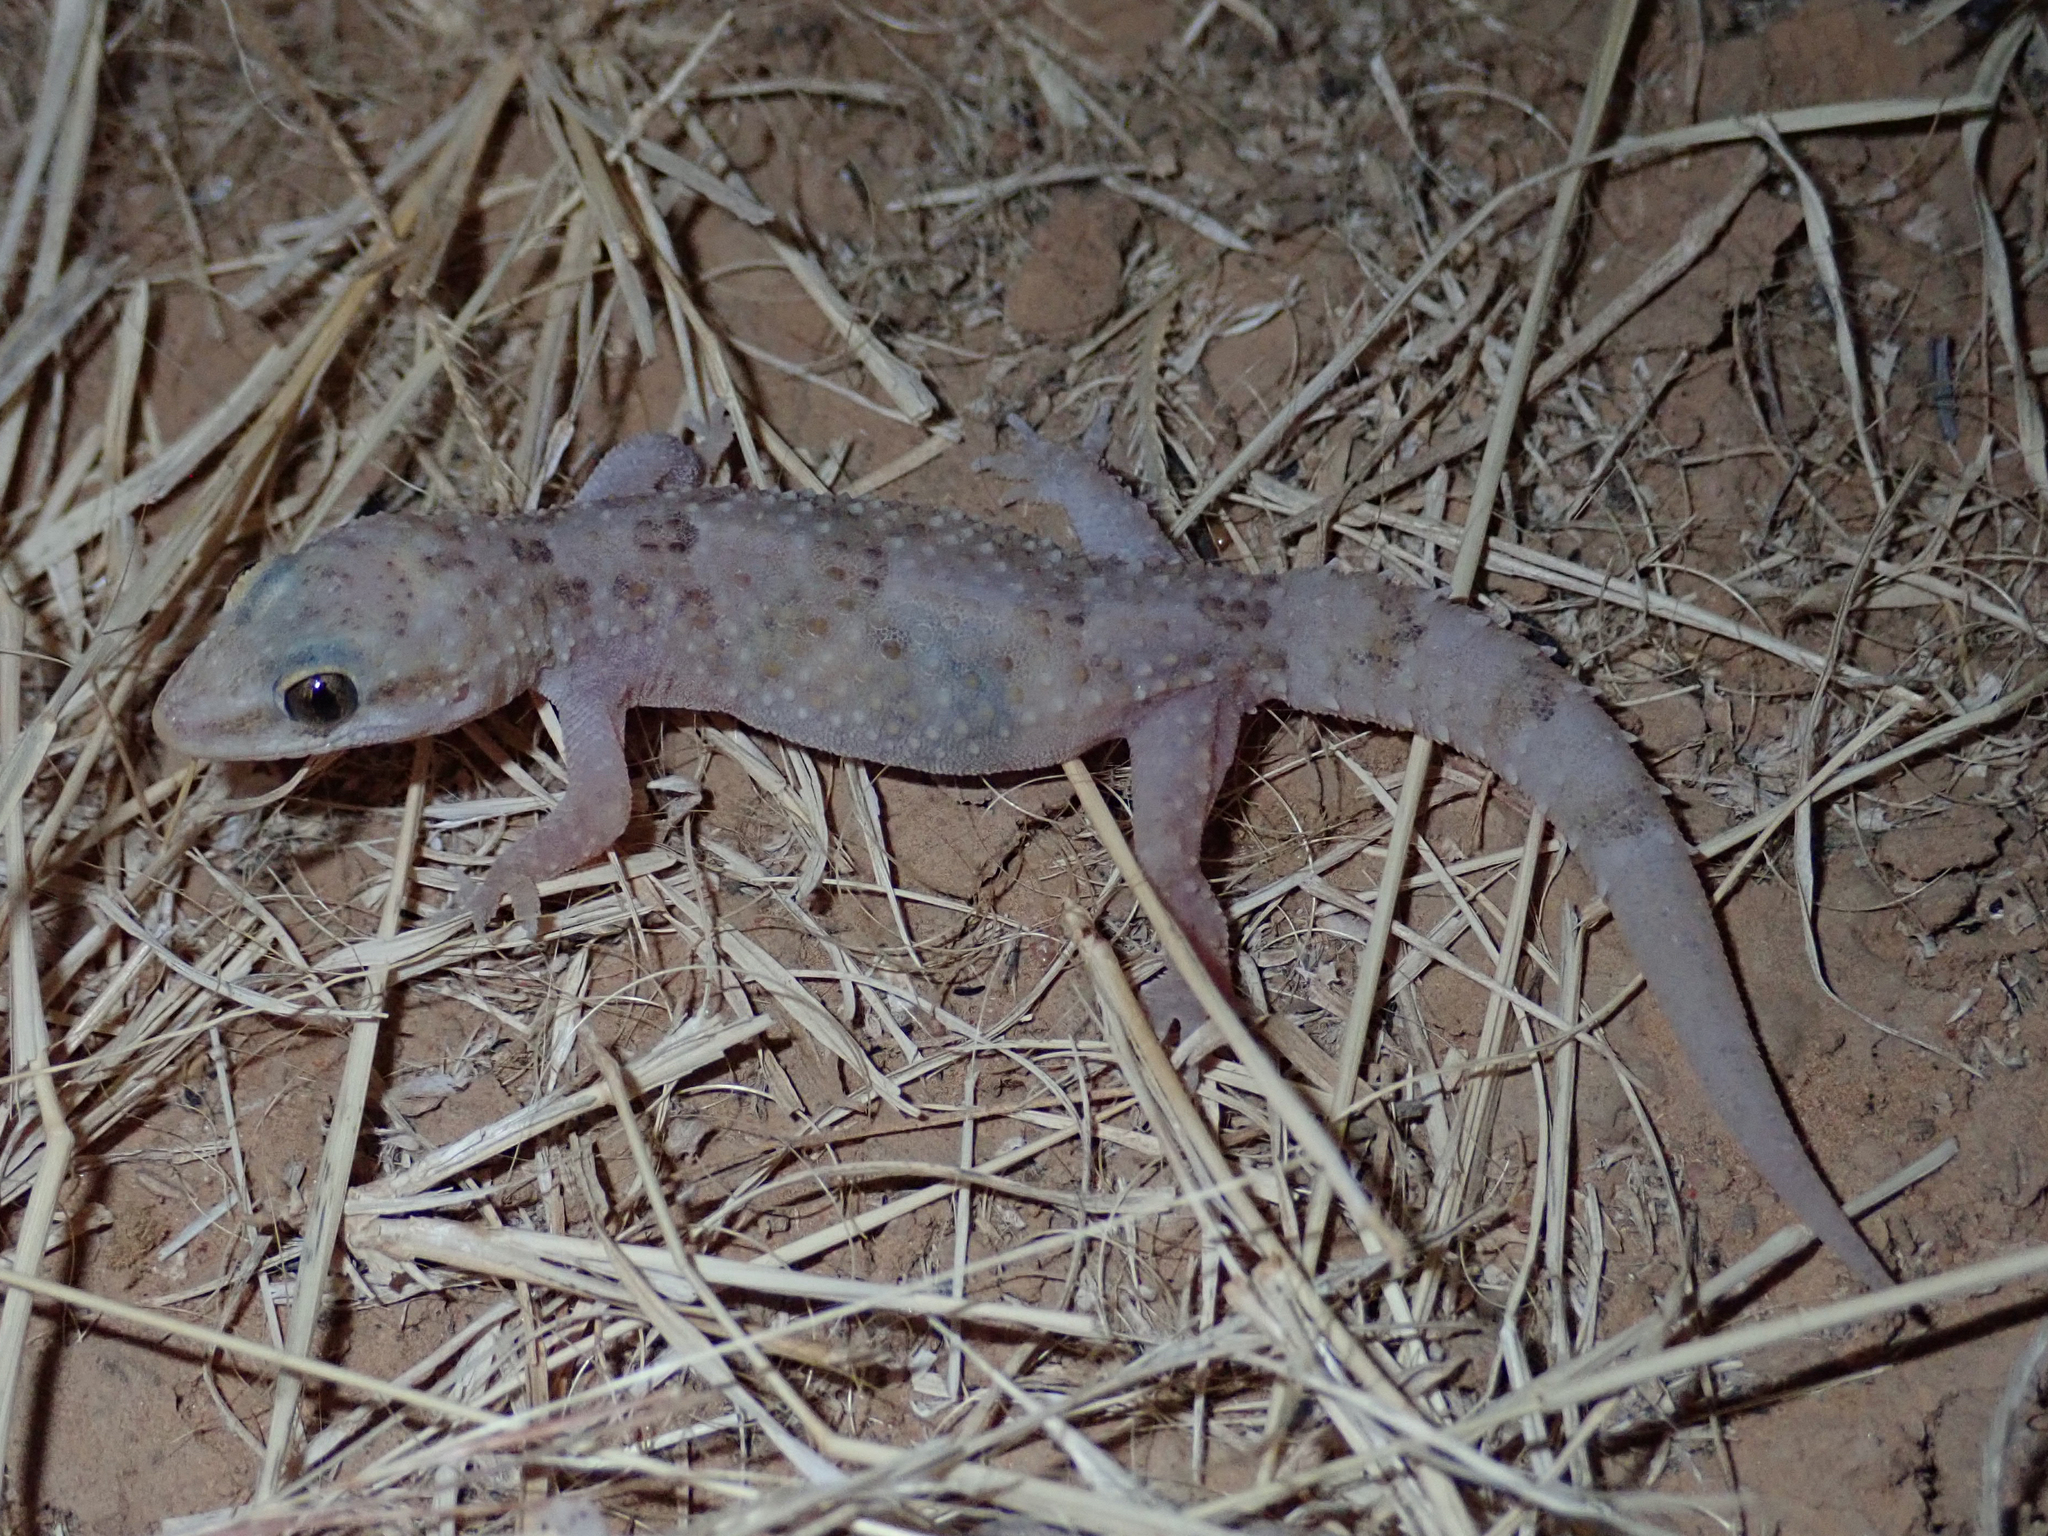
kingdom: Animalia
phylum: Chordata
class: Squamata
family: Gekkonidae
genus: Hemidactylus
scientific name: Hemidactylus angulatus
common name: Brook's house gecko
